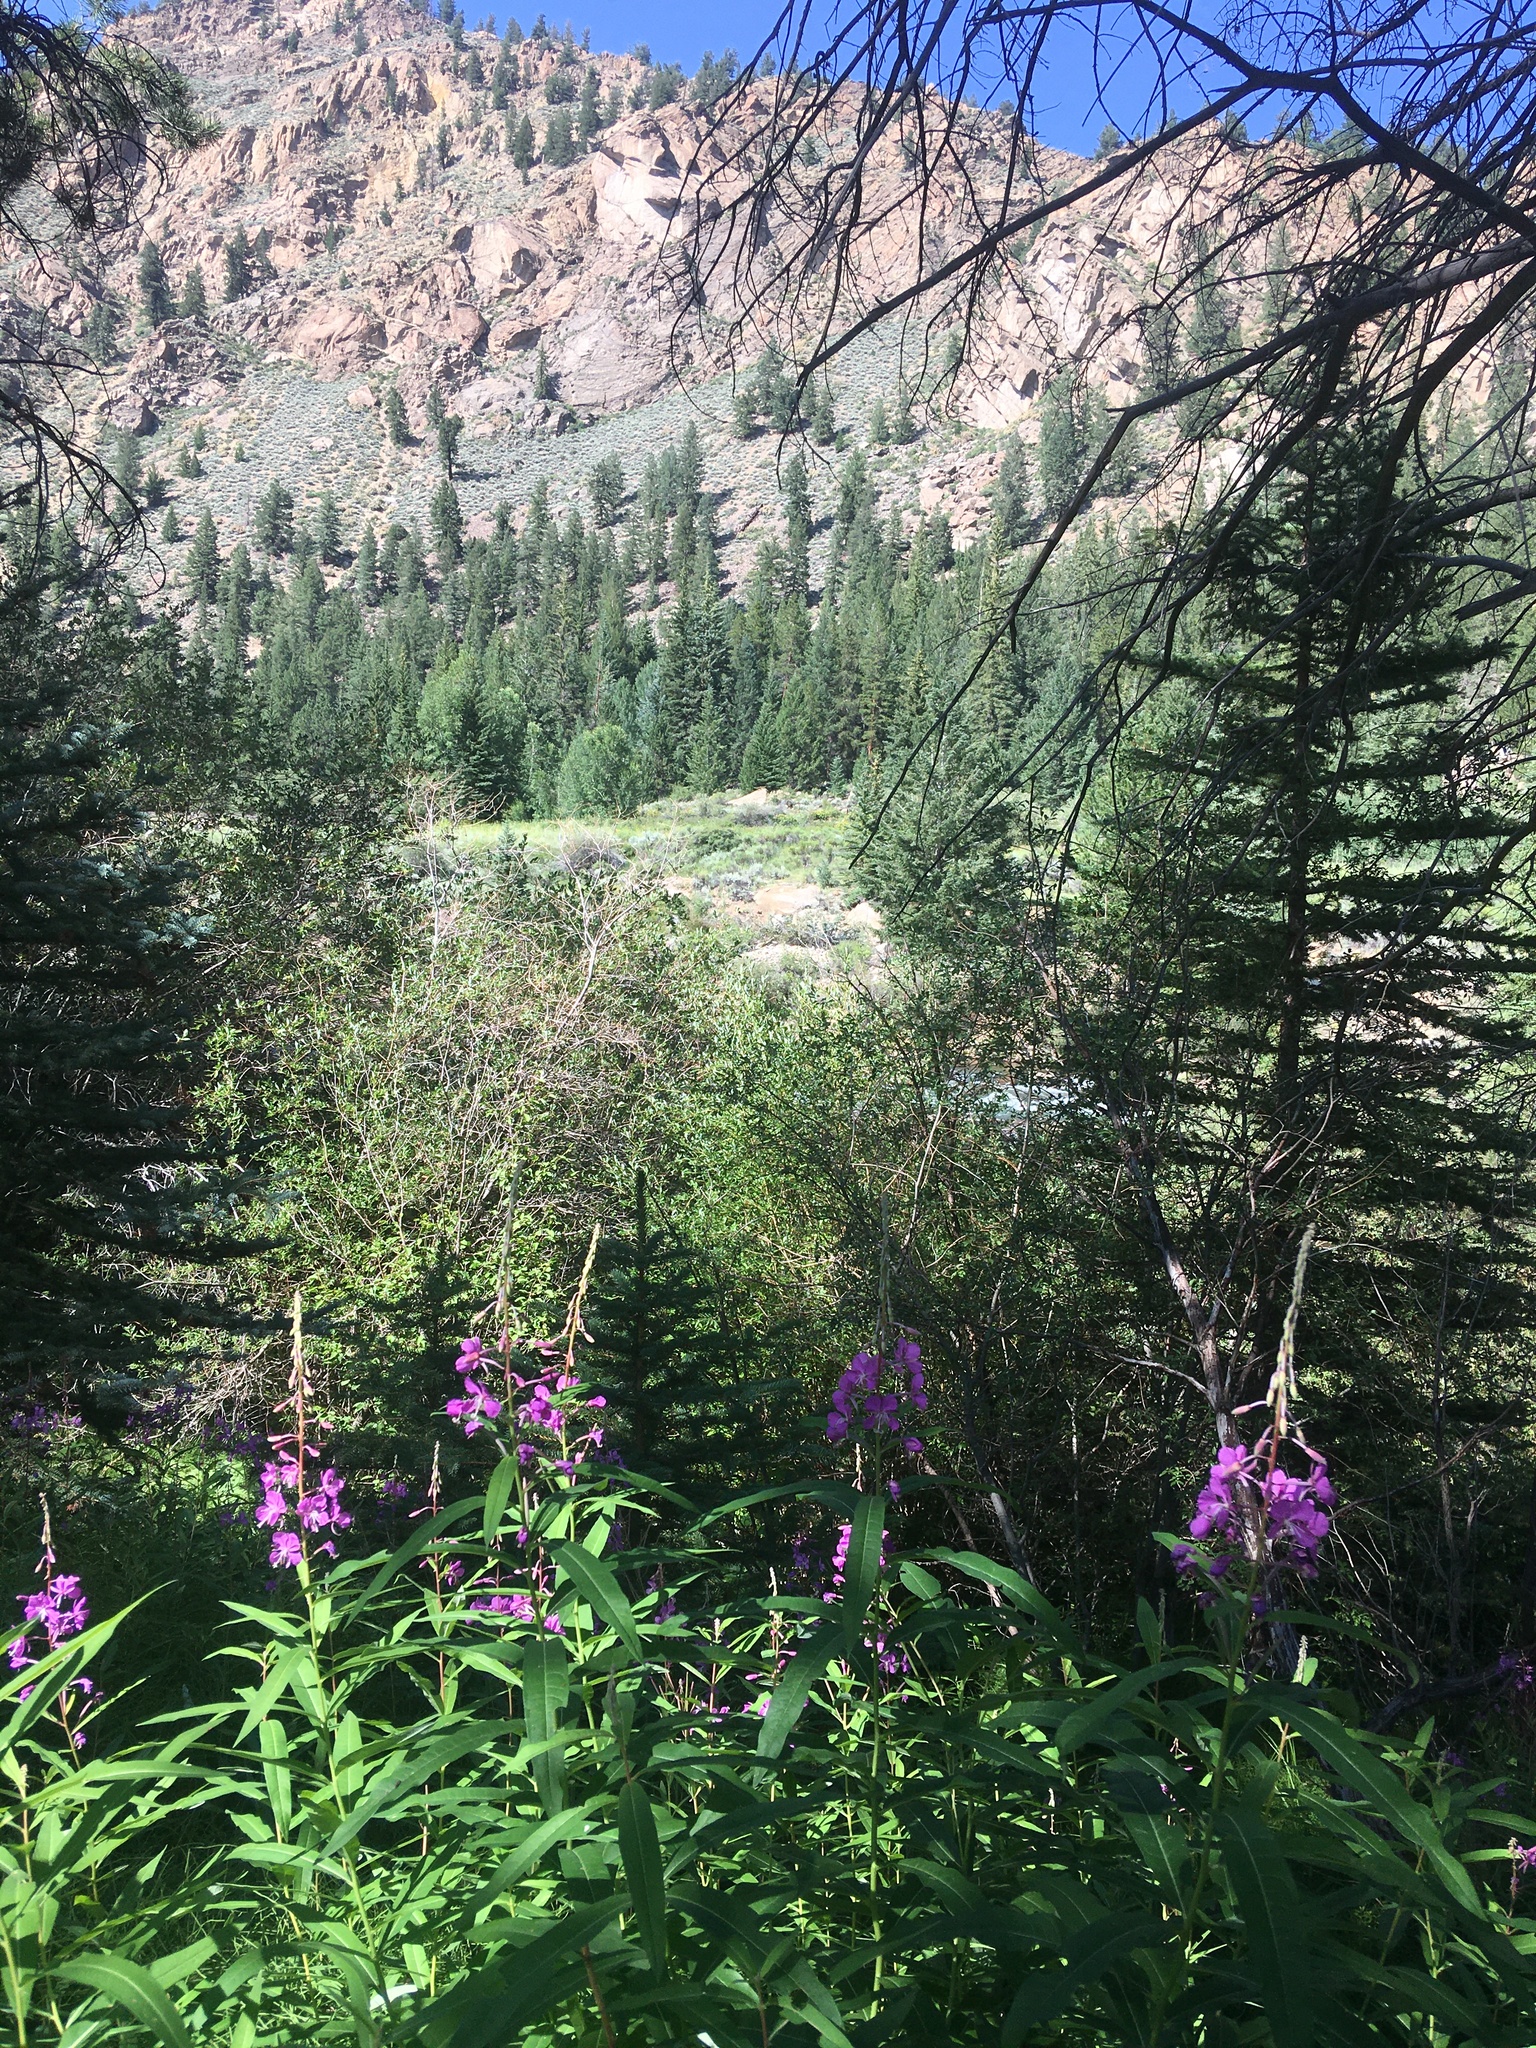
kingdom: Plantae
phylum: Tracheophyta
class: Magnoliopsida
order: Myrtales
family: Onagraceae
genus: Chamaenerion
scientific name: Chamaenerion angustifolium
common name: Fireweed
